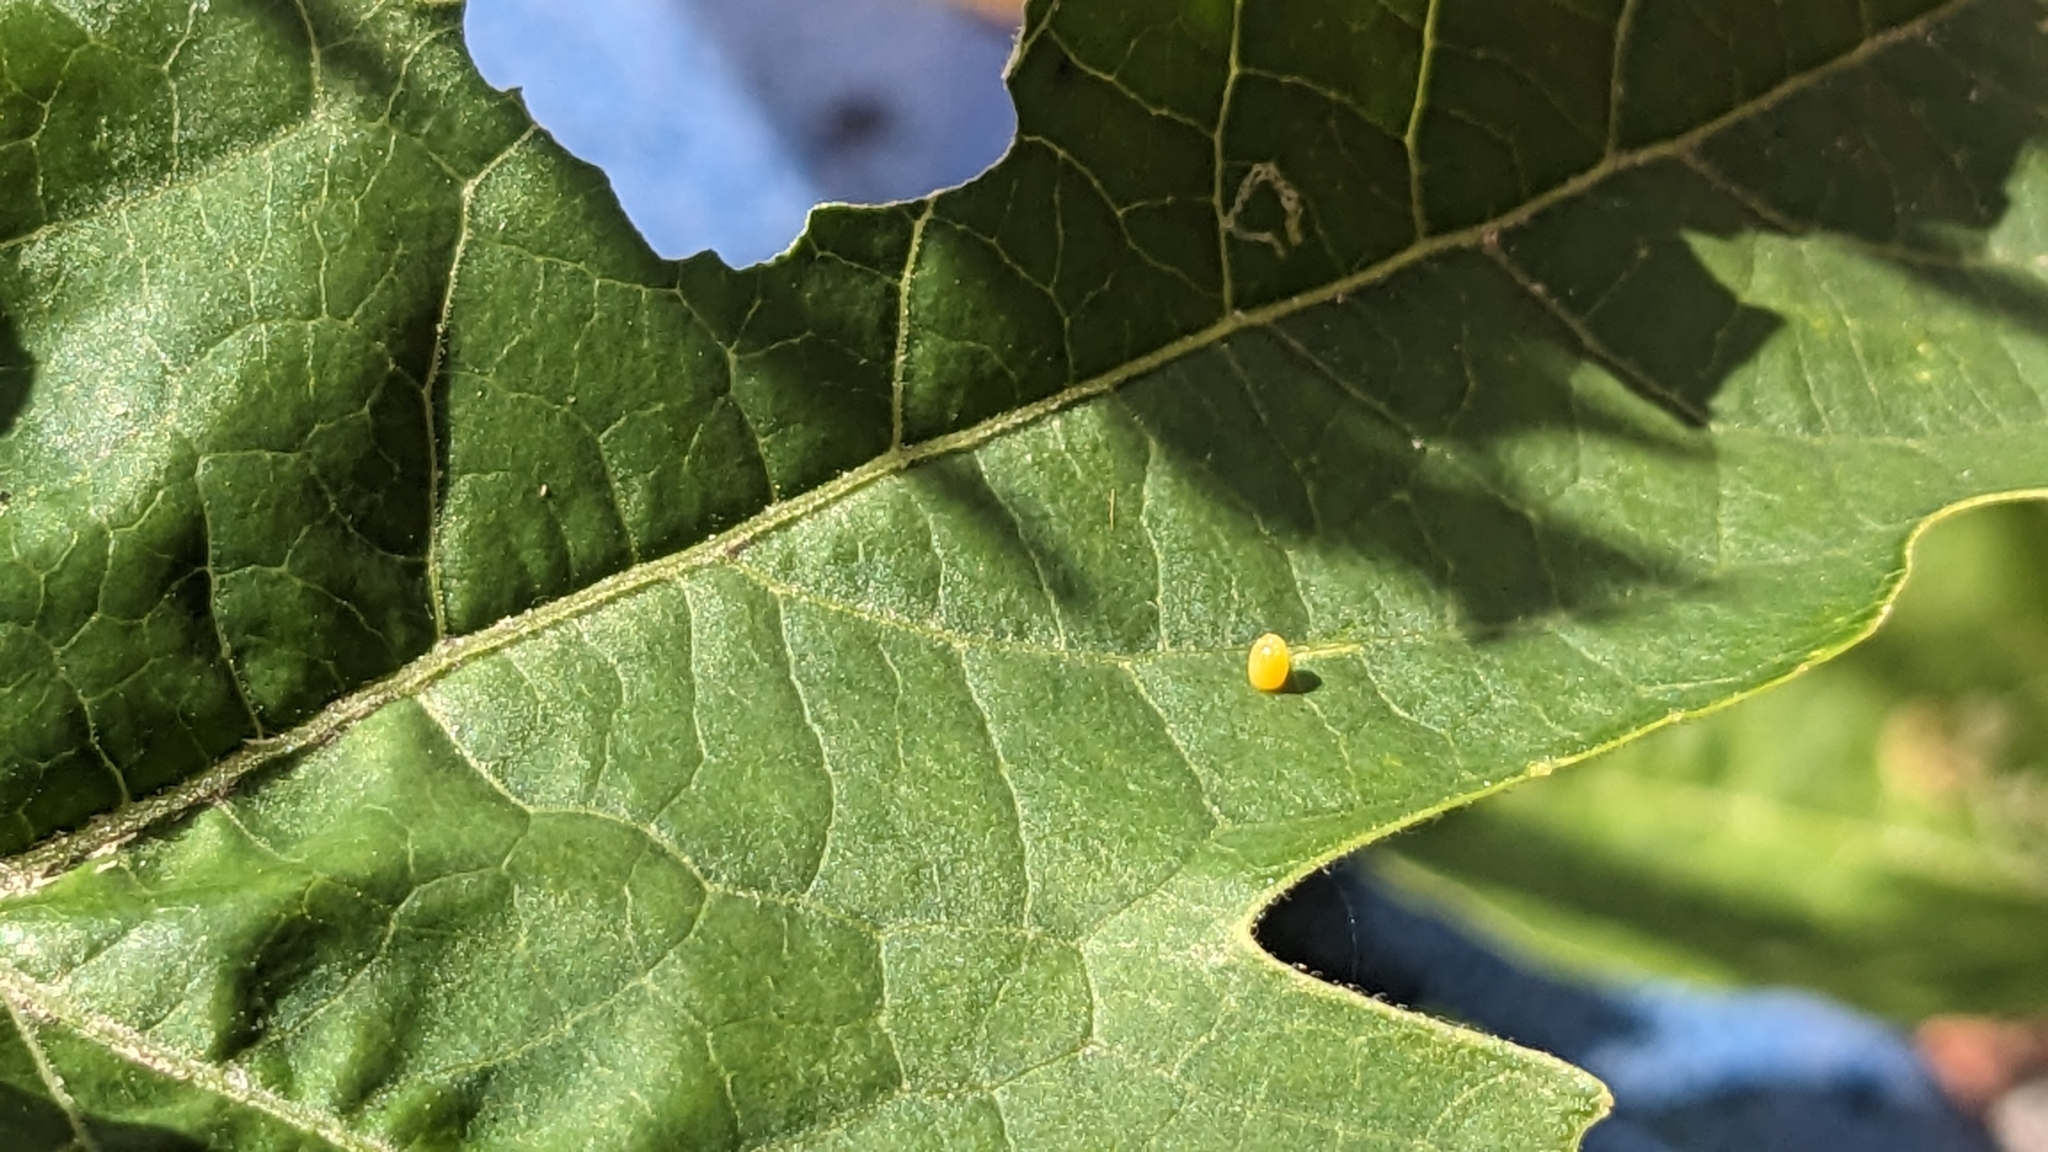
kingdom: Animalia
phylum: Arthropoda
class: Insecta
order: Lepidoptera
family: Nymphalidae
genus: Dione
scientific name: Dione vanillae
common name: Gulf fritillary
